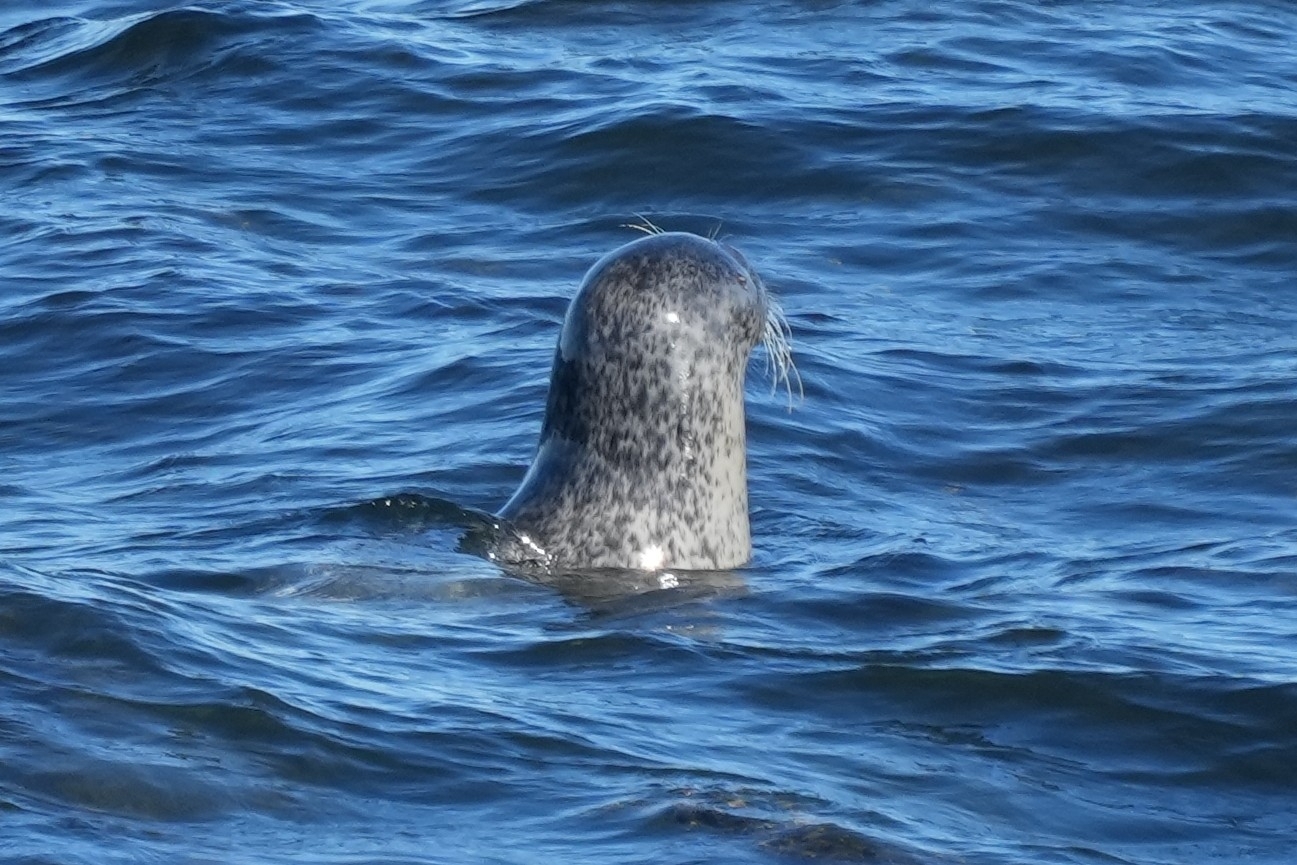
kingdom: Animalia
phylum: Chordata
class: Mammalia
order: Carnivora
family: Phocidae
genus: Phoca
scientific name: Phoca vitulina
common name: Harbor seal
